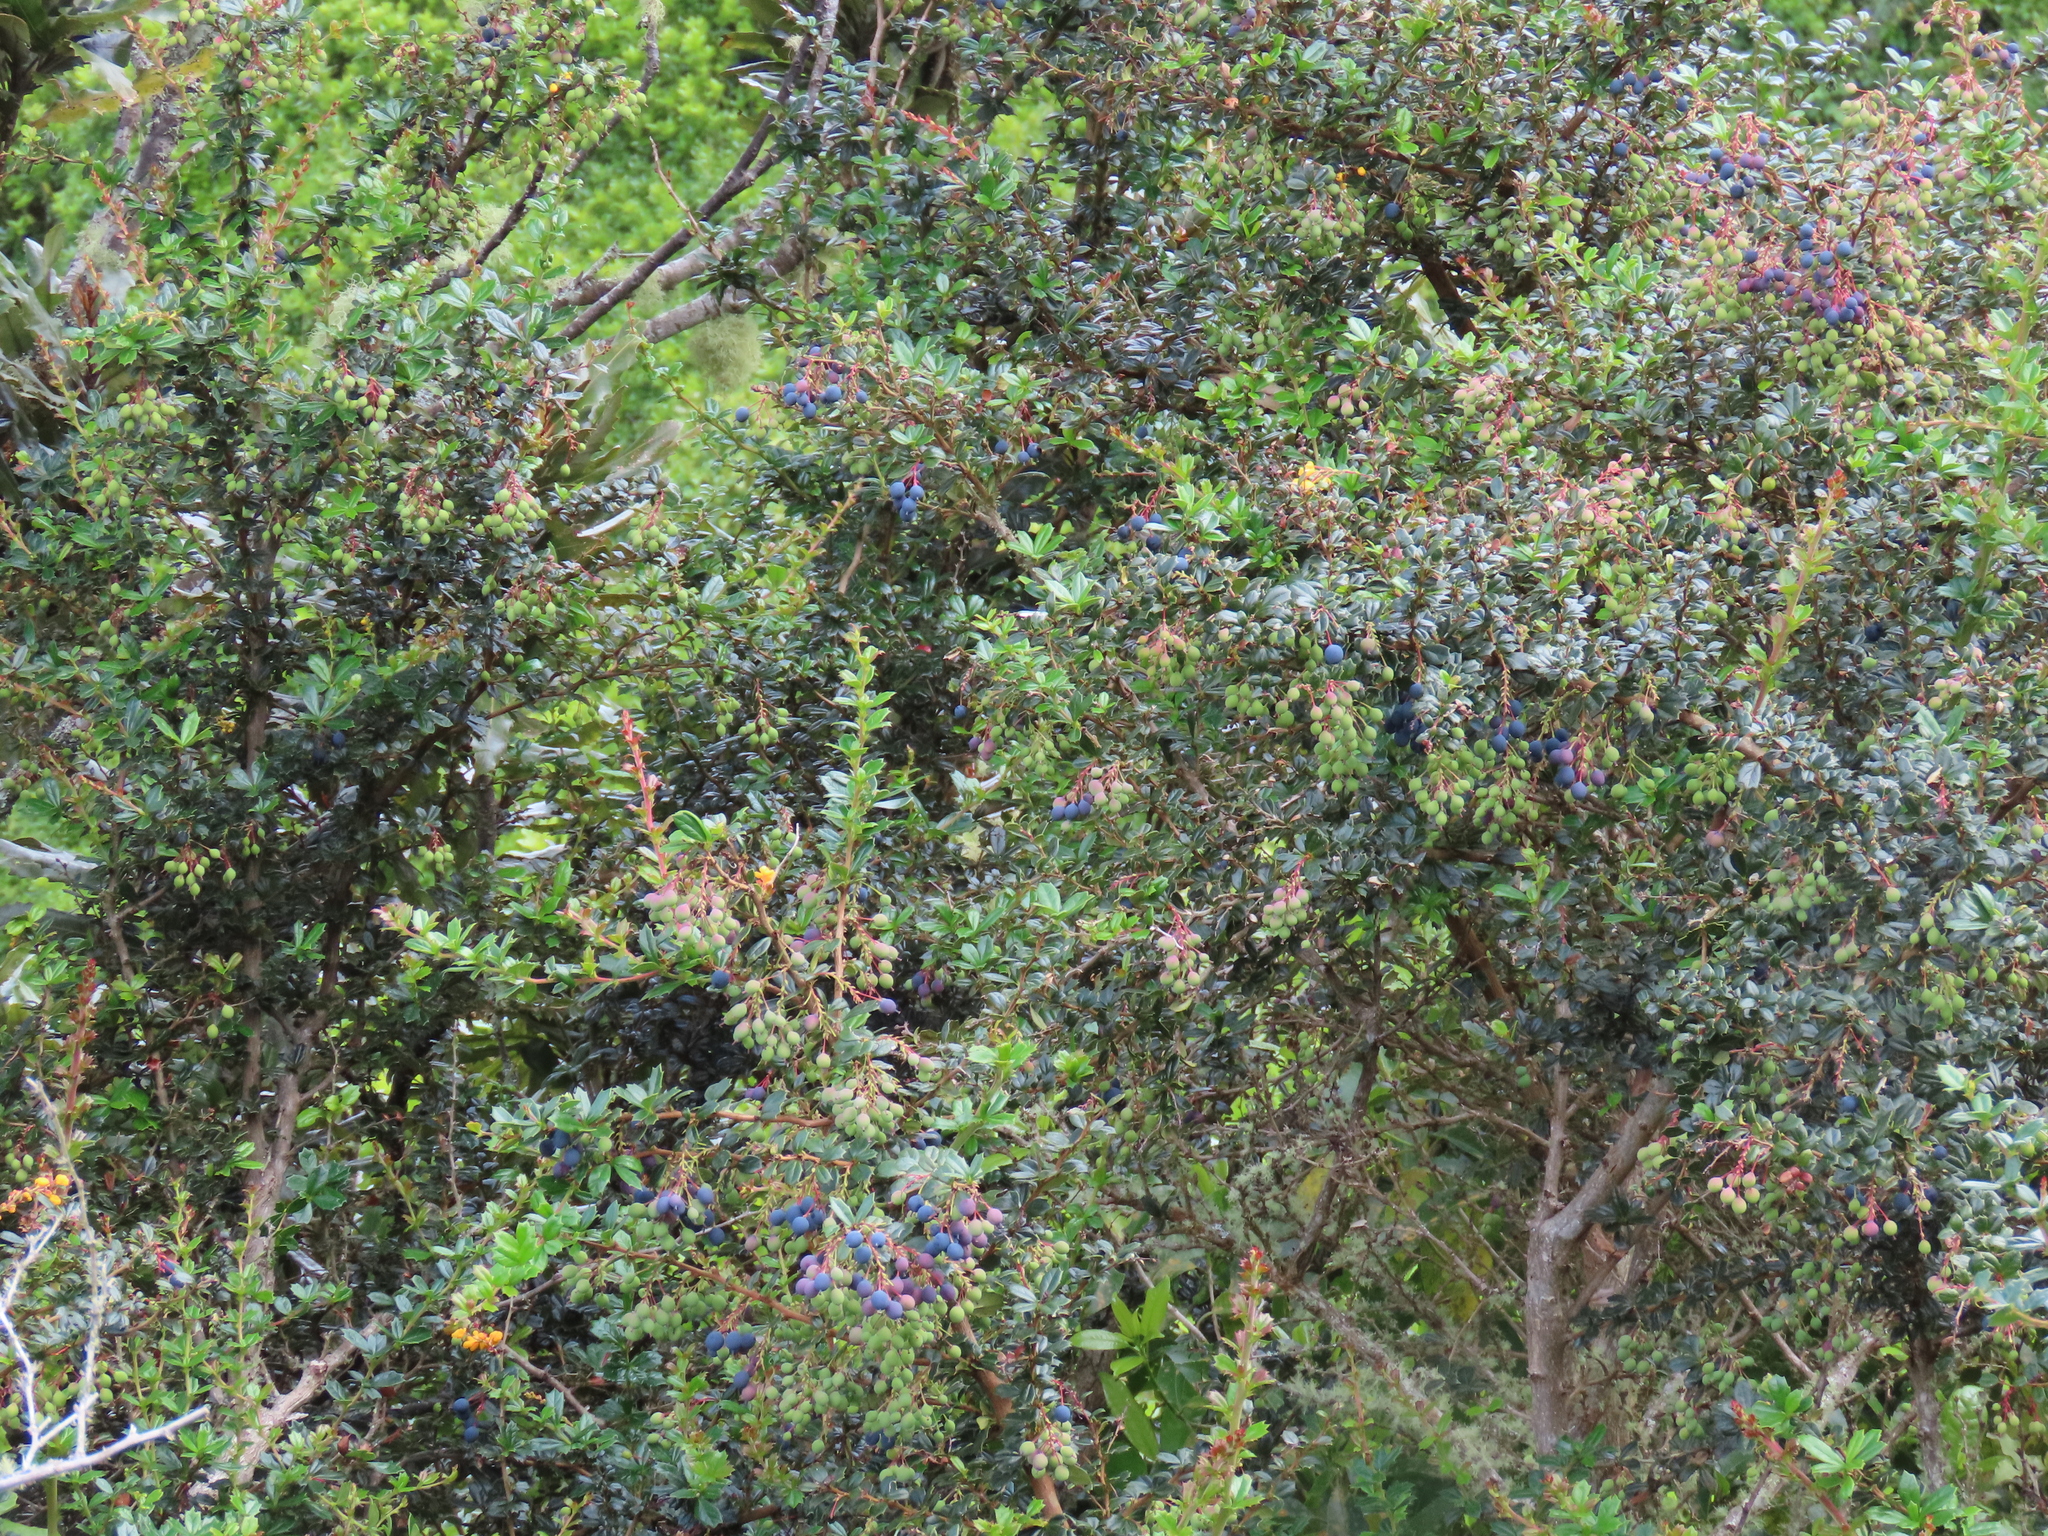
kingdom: Plantae
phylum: Tracheophyta
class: Magnoliopsida
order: Ranunculales
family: Berberidaceae
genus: Berberis
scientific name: Berberis darwinii
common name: Darwin's barberry
